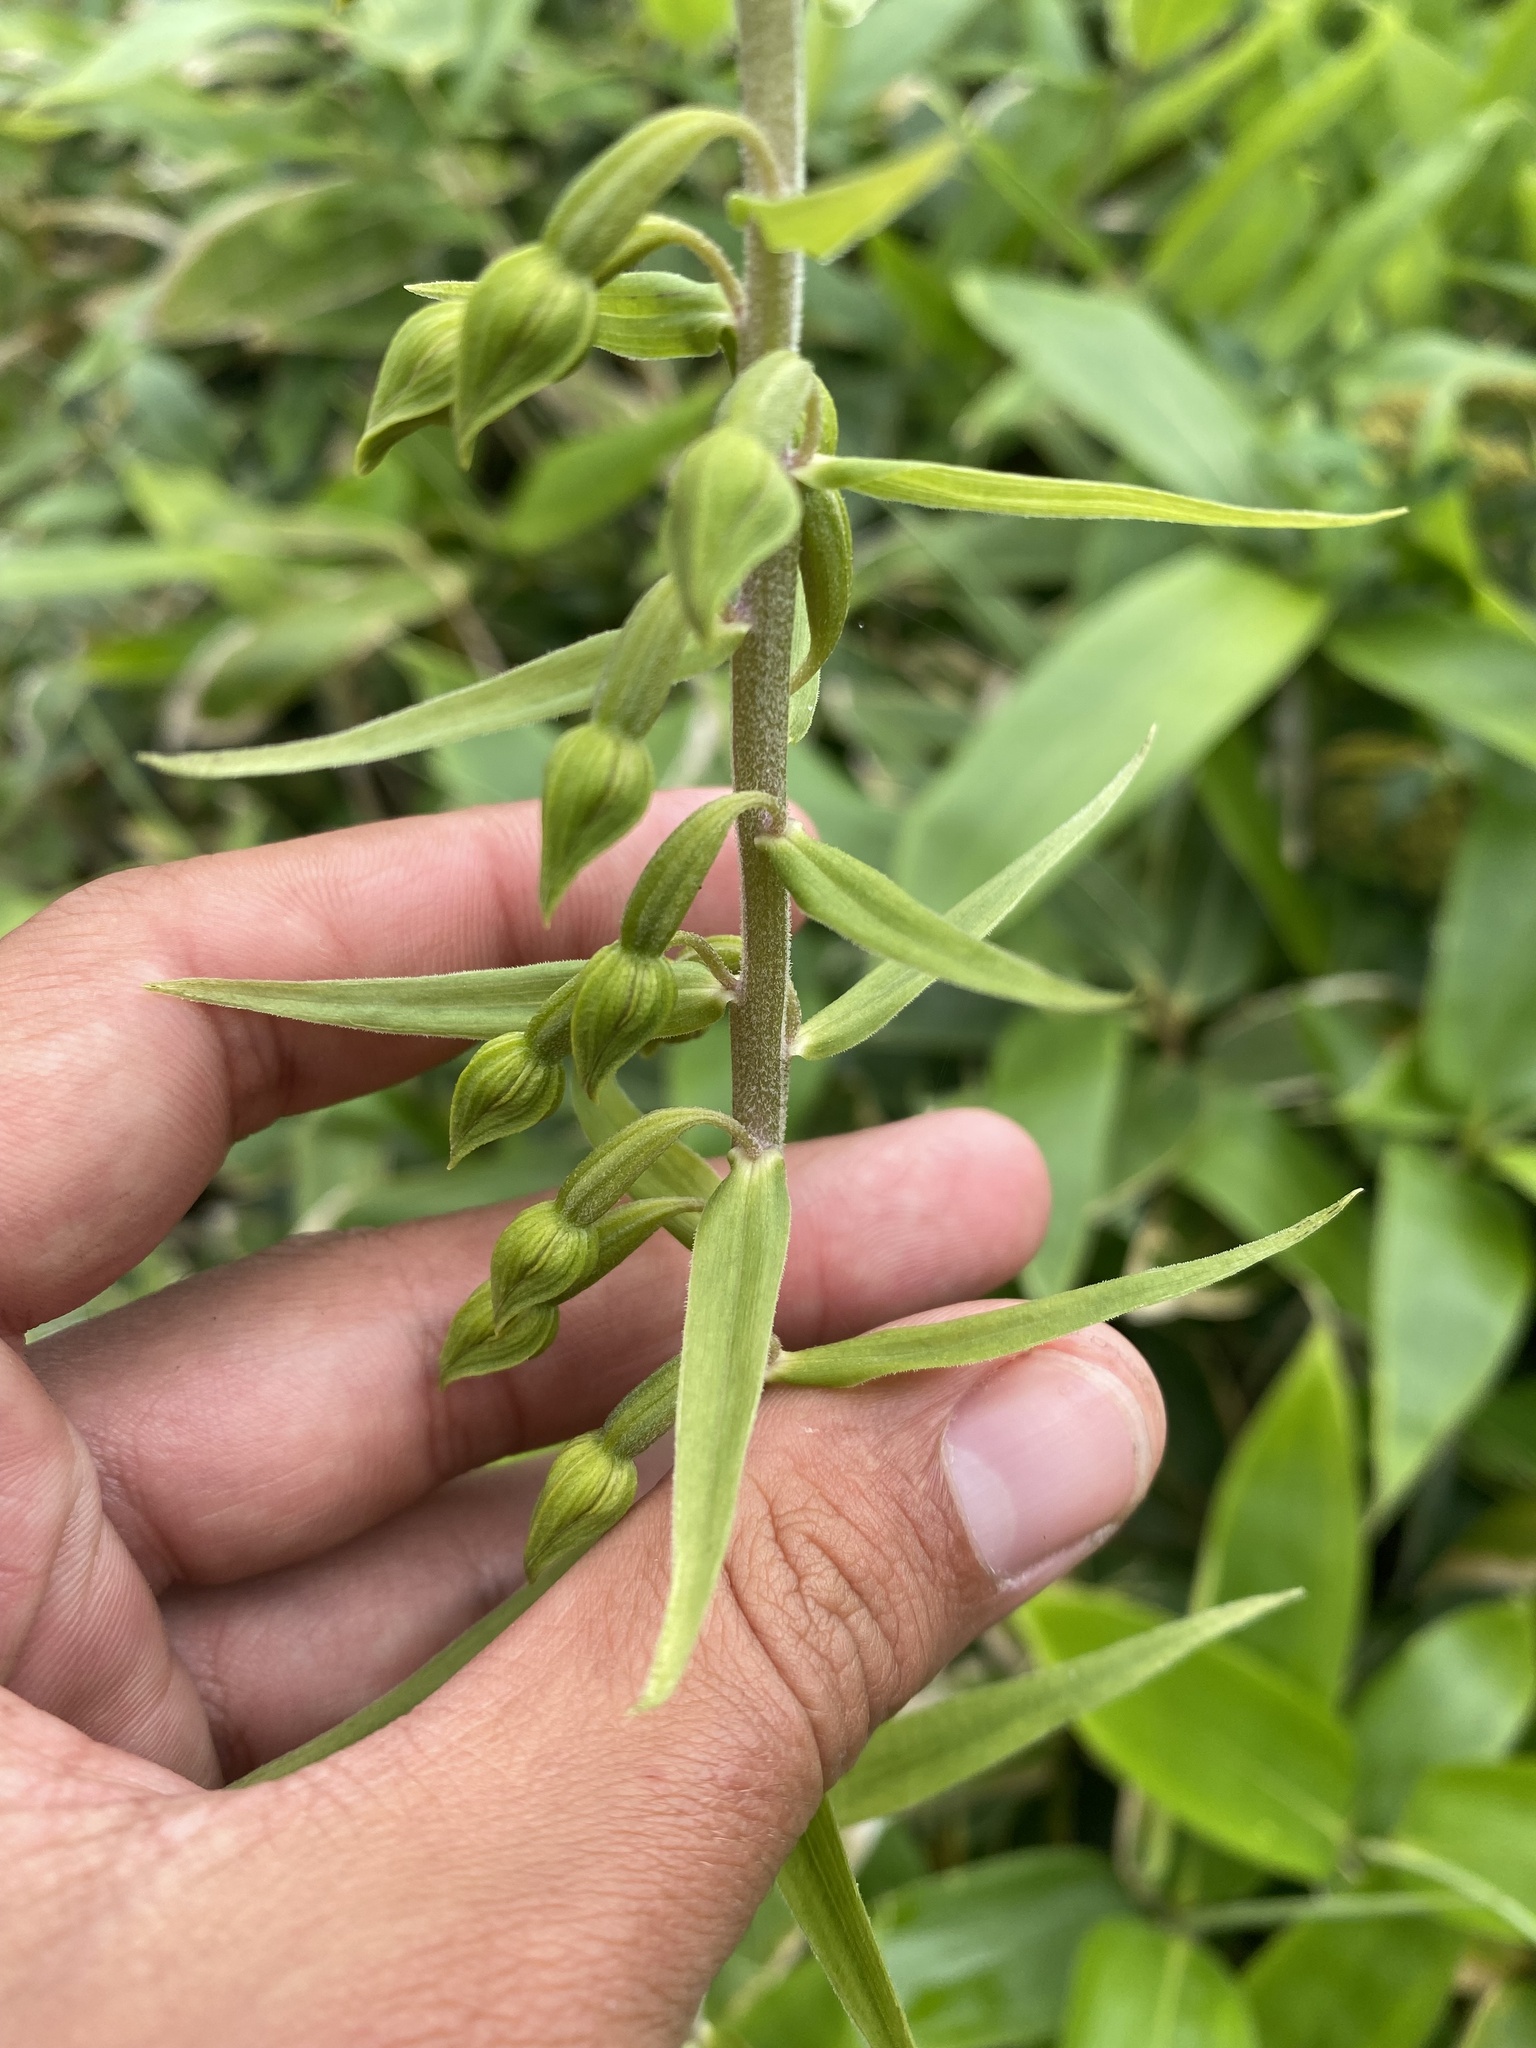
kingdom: Plantae
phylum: Tracheophyta
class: Liliopsida
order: Asparagales
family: Orchidaceae
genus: Epipactis
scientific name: Epipactis papillosa
